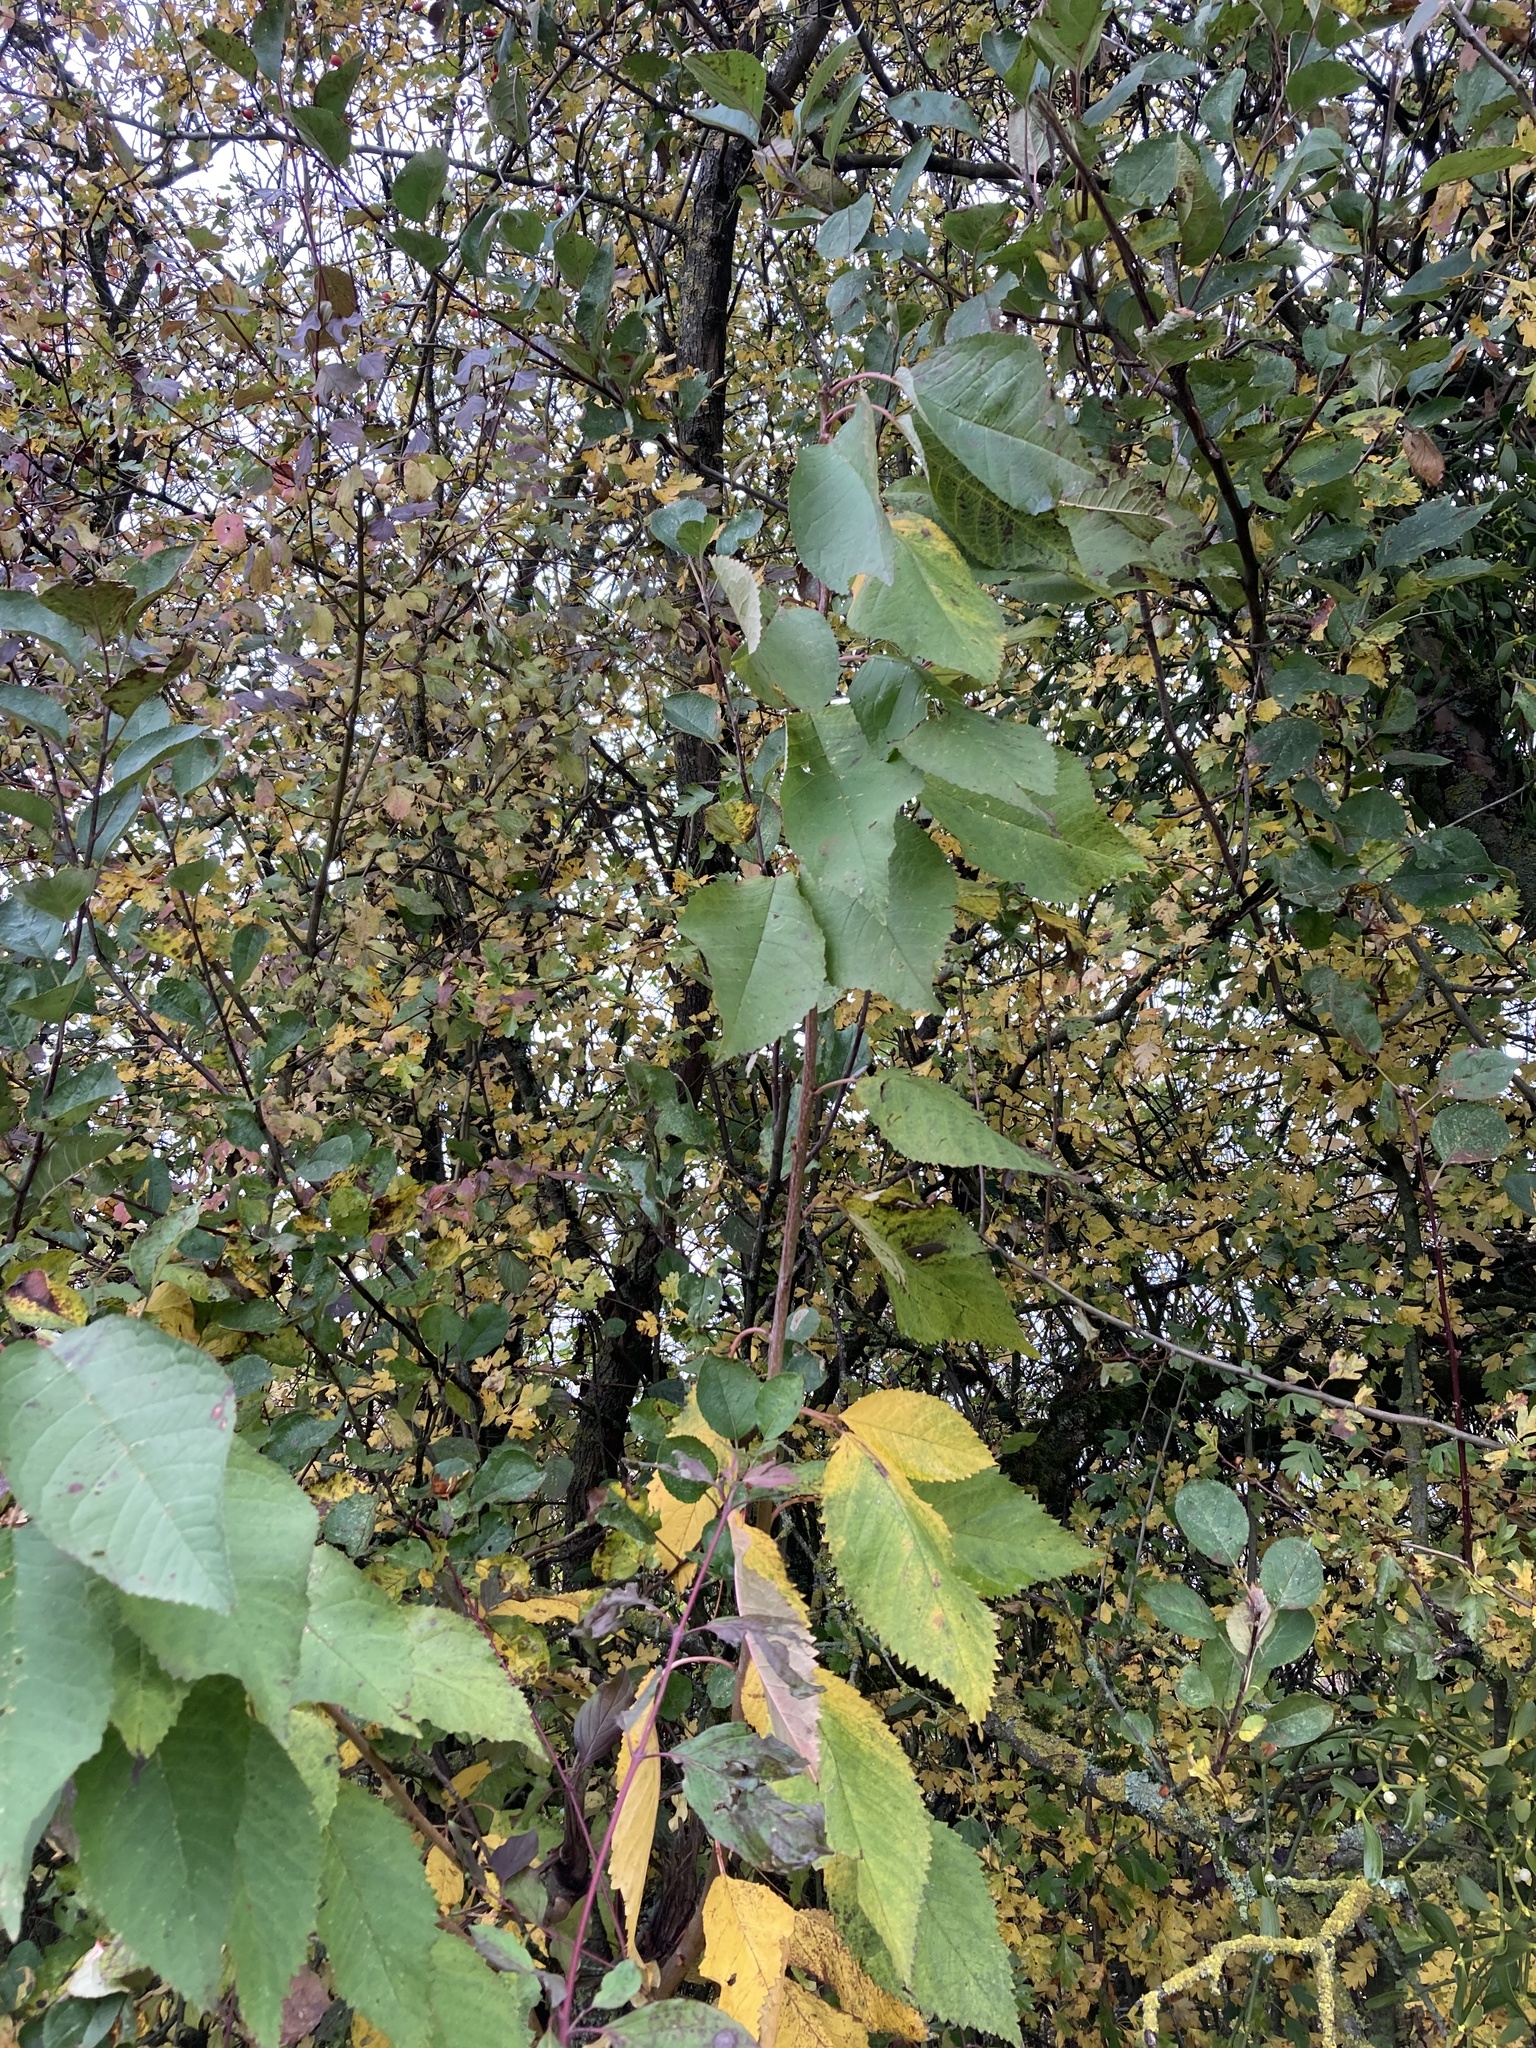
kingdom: Plantae
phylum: Tracheophyta
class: Magnoliopsida
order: Rosales
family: Rosaceae
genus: Prunus
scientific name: Prunus avium
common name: Sweet cherry
